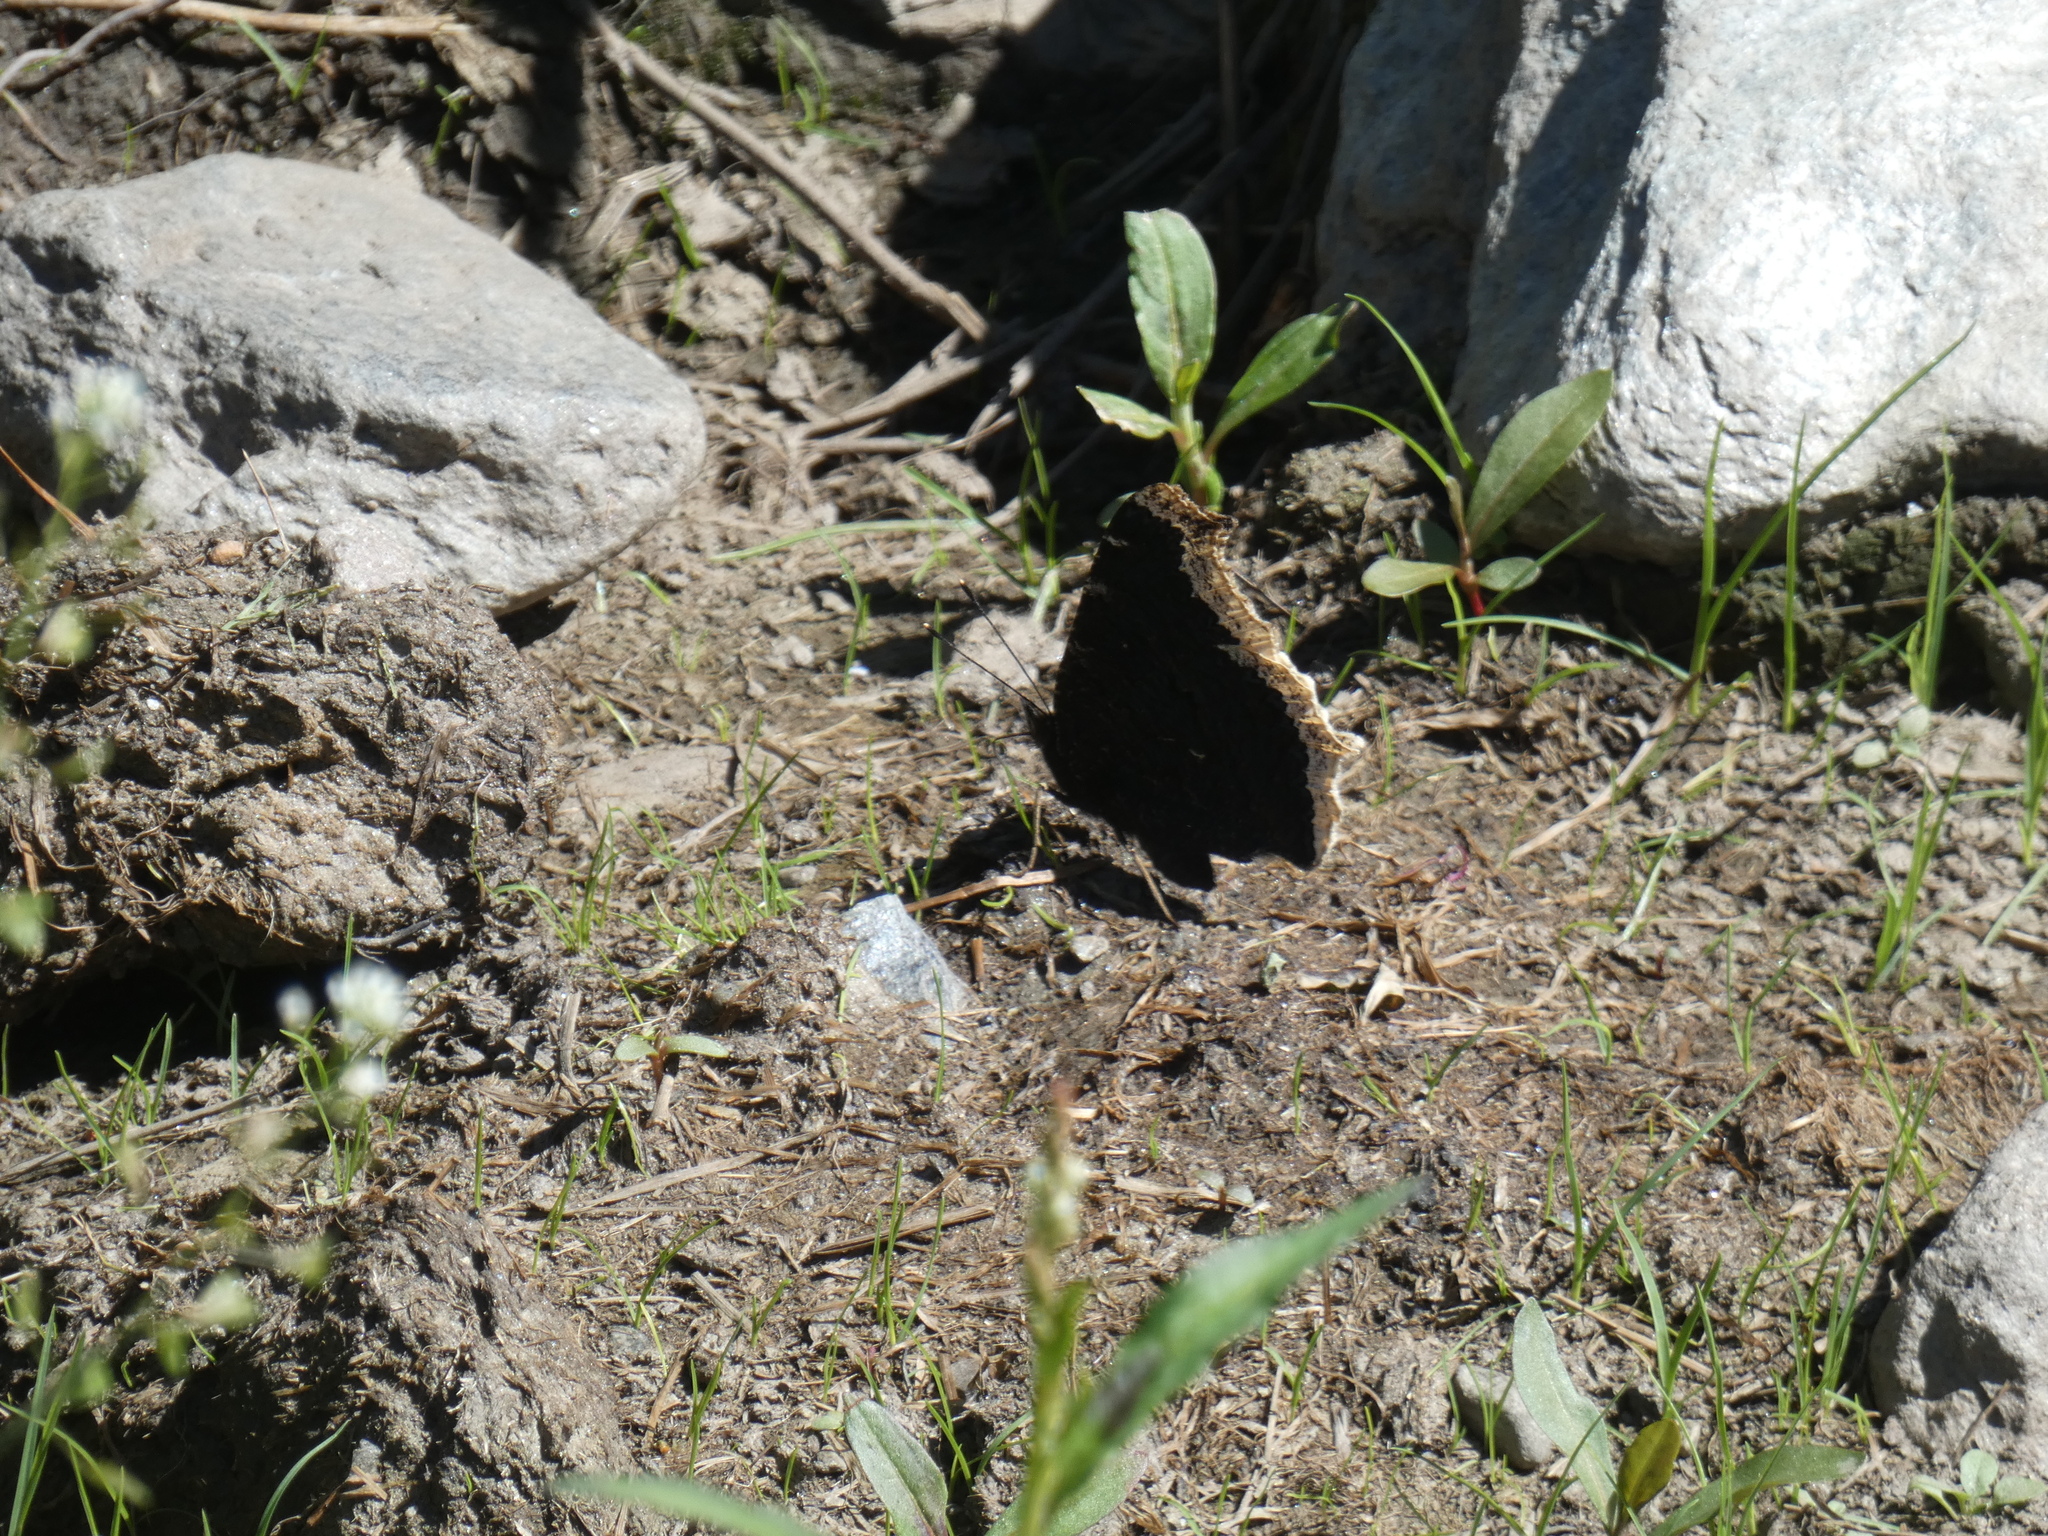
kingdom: Animalia
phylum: Arthropoda
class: Insecta
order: Lepidoptera
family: Nymphalidae
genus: Nymphalis
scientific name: Nymphalis antiopa
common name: Camberwell beauty
